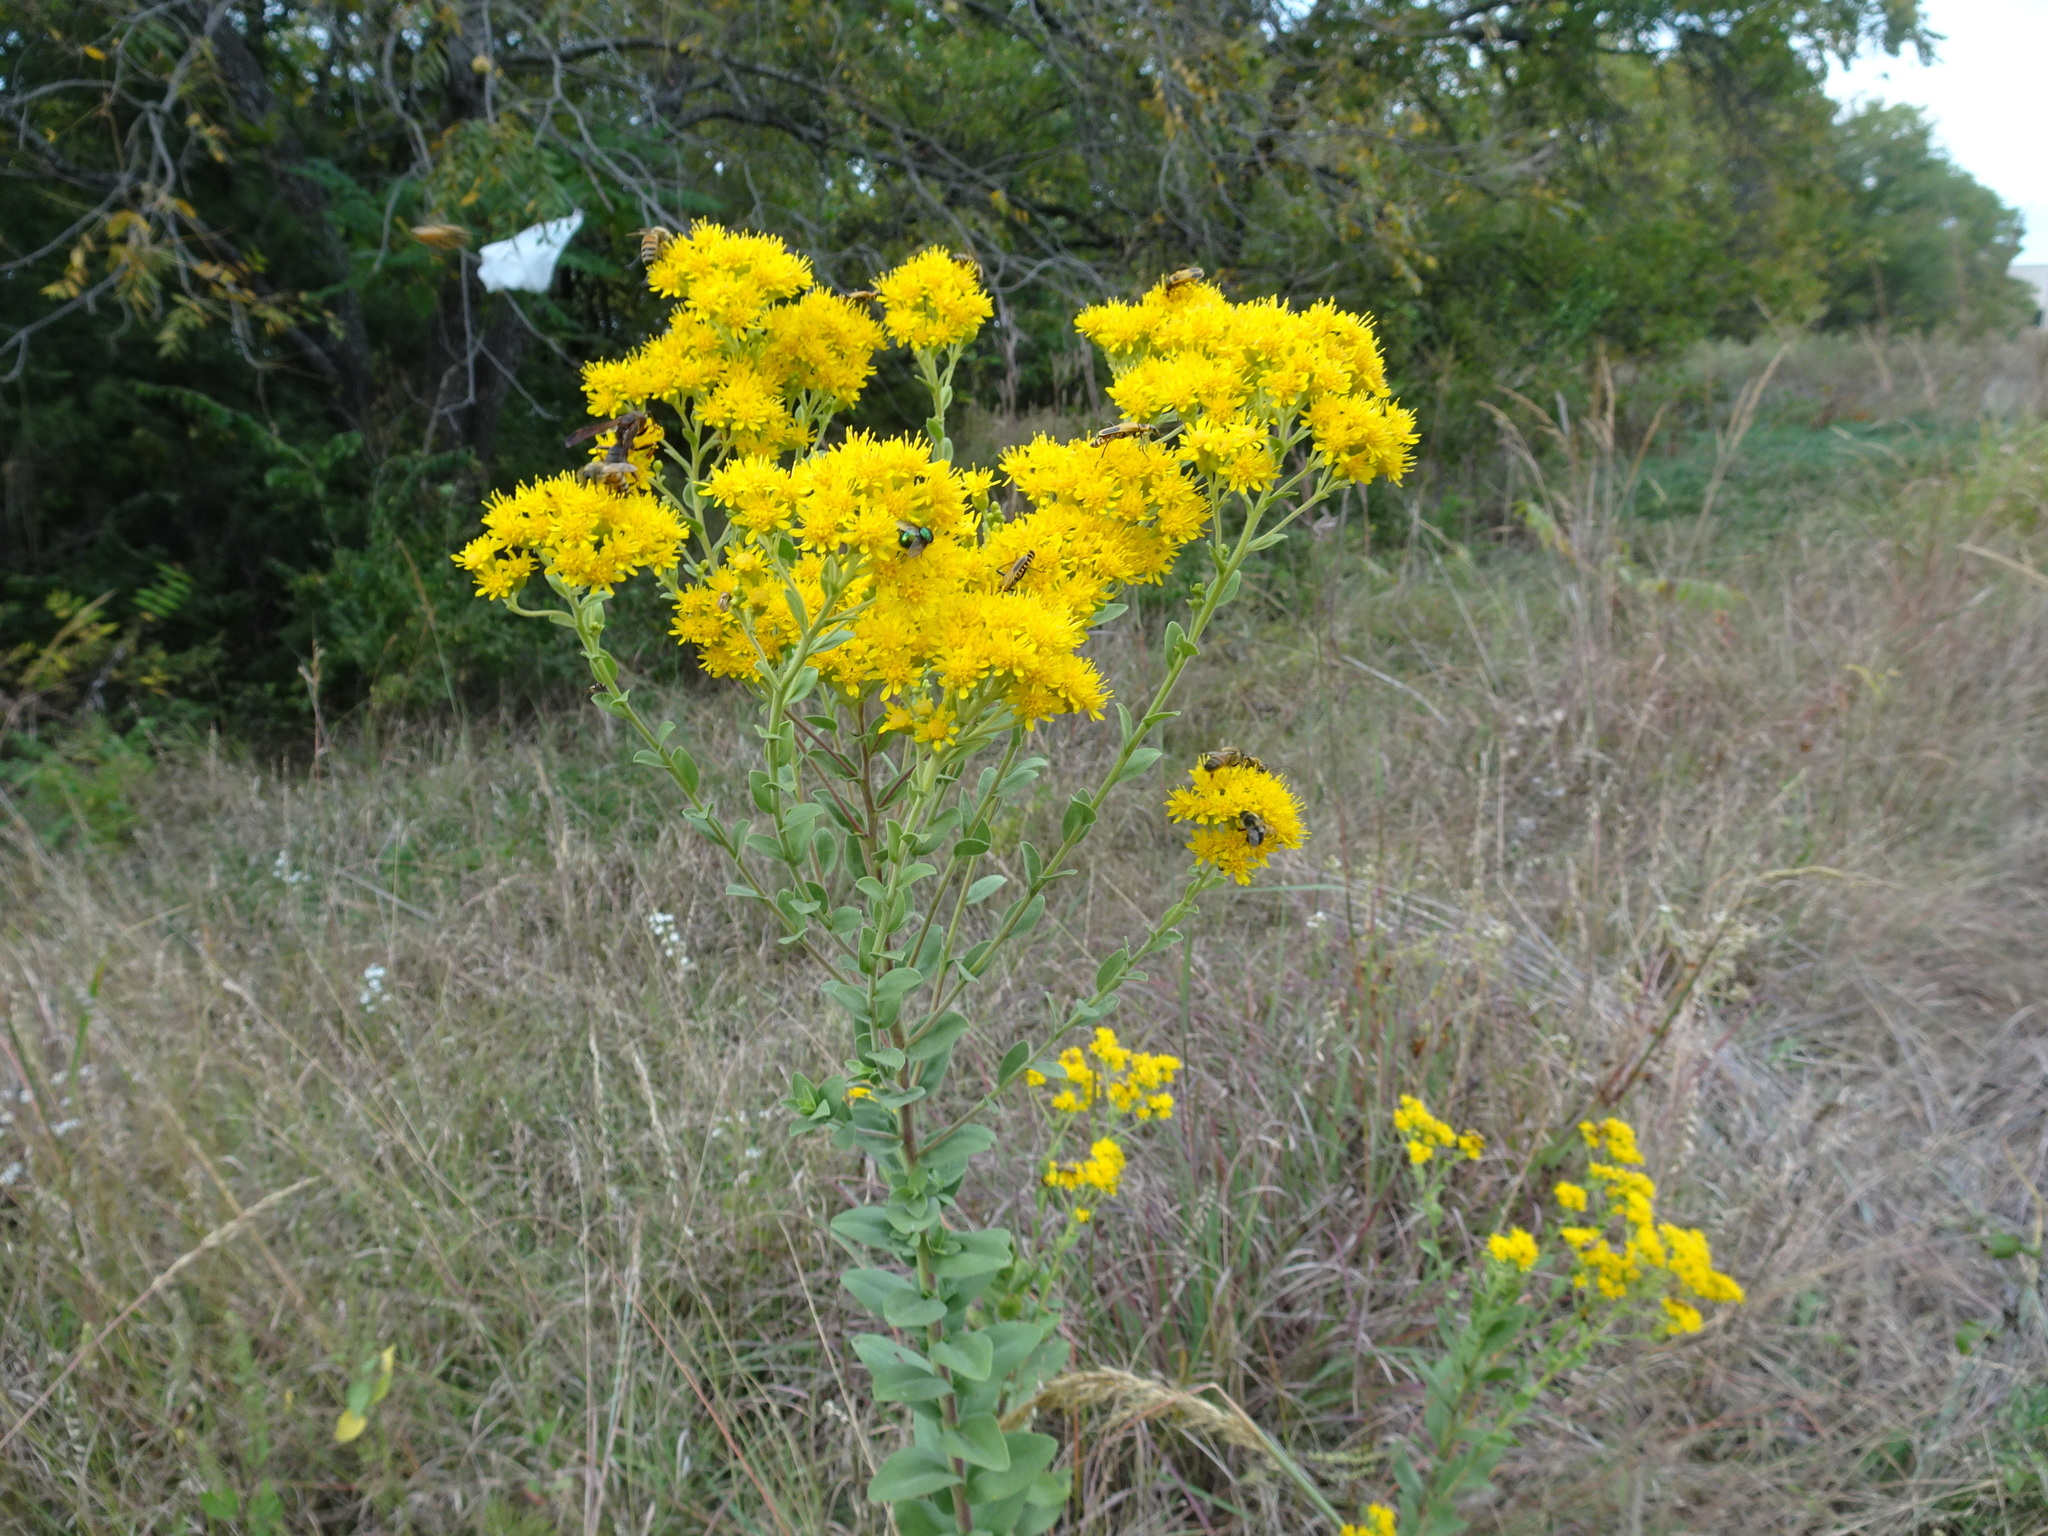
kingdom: Plantae
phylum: Tracheophyta
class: Magnoliopsida
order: Asterales
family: Asteraceae
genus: Solidago
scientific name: Solidago rigida
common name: Rigid goldenrod
